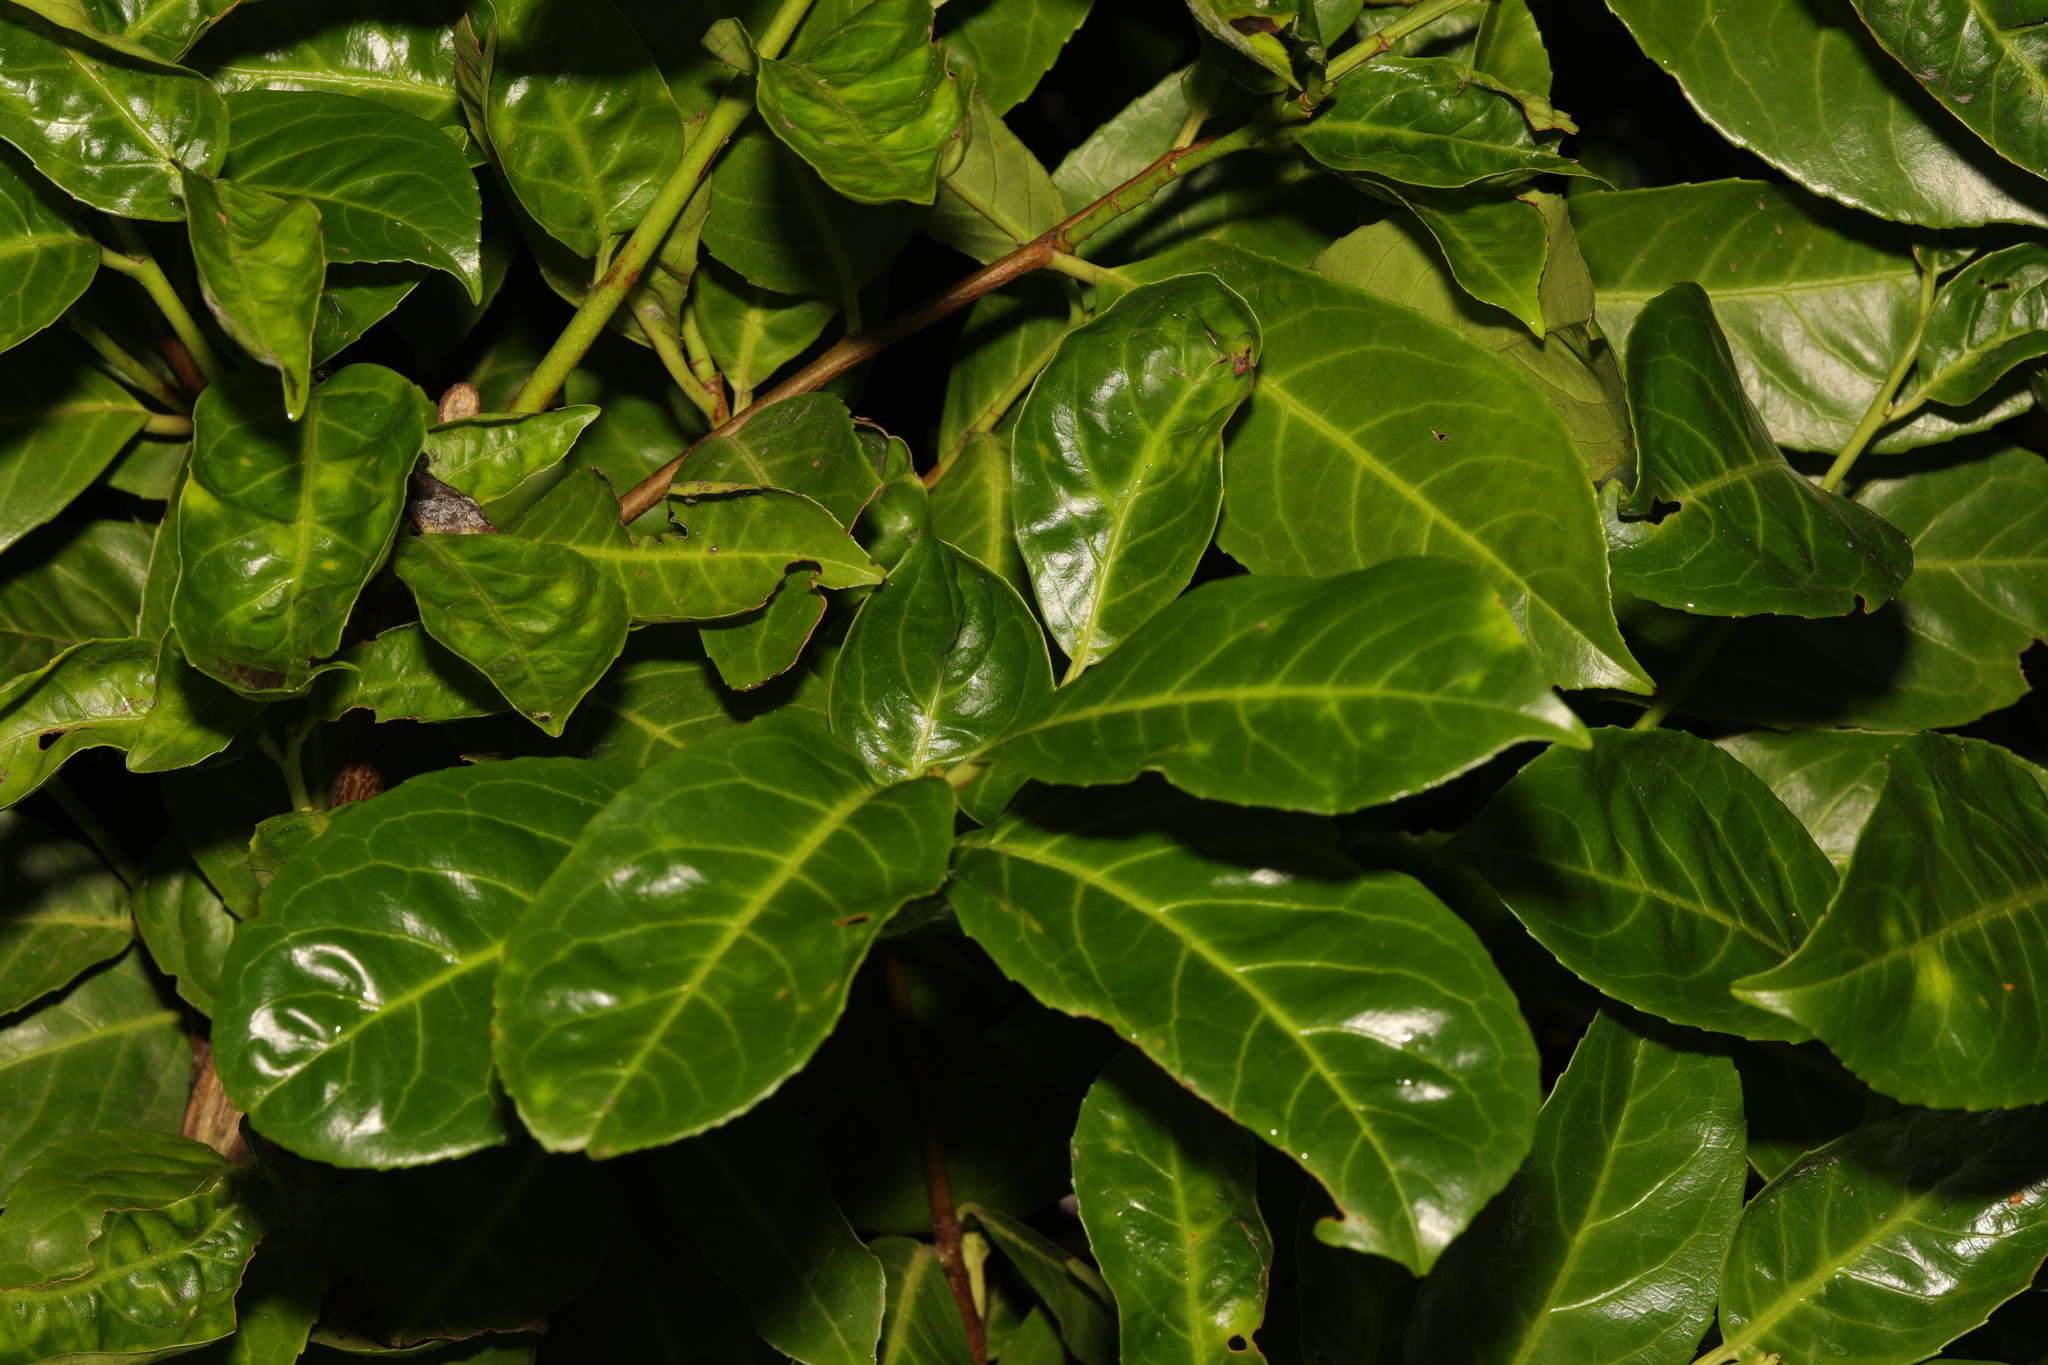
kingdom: Plantae
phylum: Tracheophyta
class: Magnoliopsida
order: Rosales
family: Rosaceae
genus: Prunus
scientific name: Prunus laurocerasus
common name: Cherry laurel
